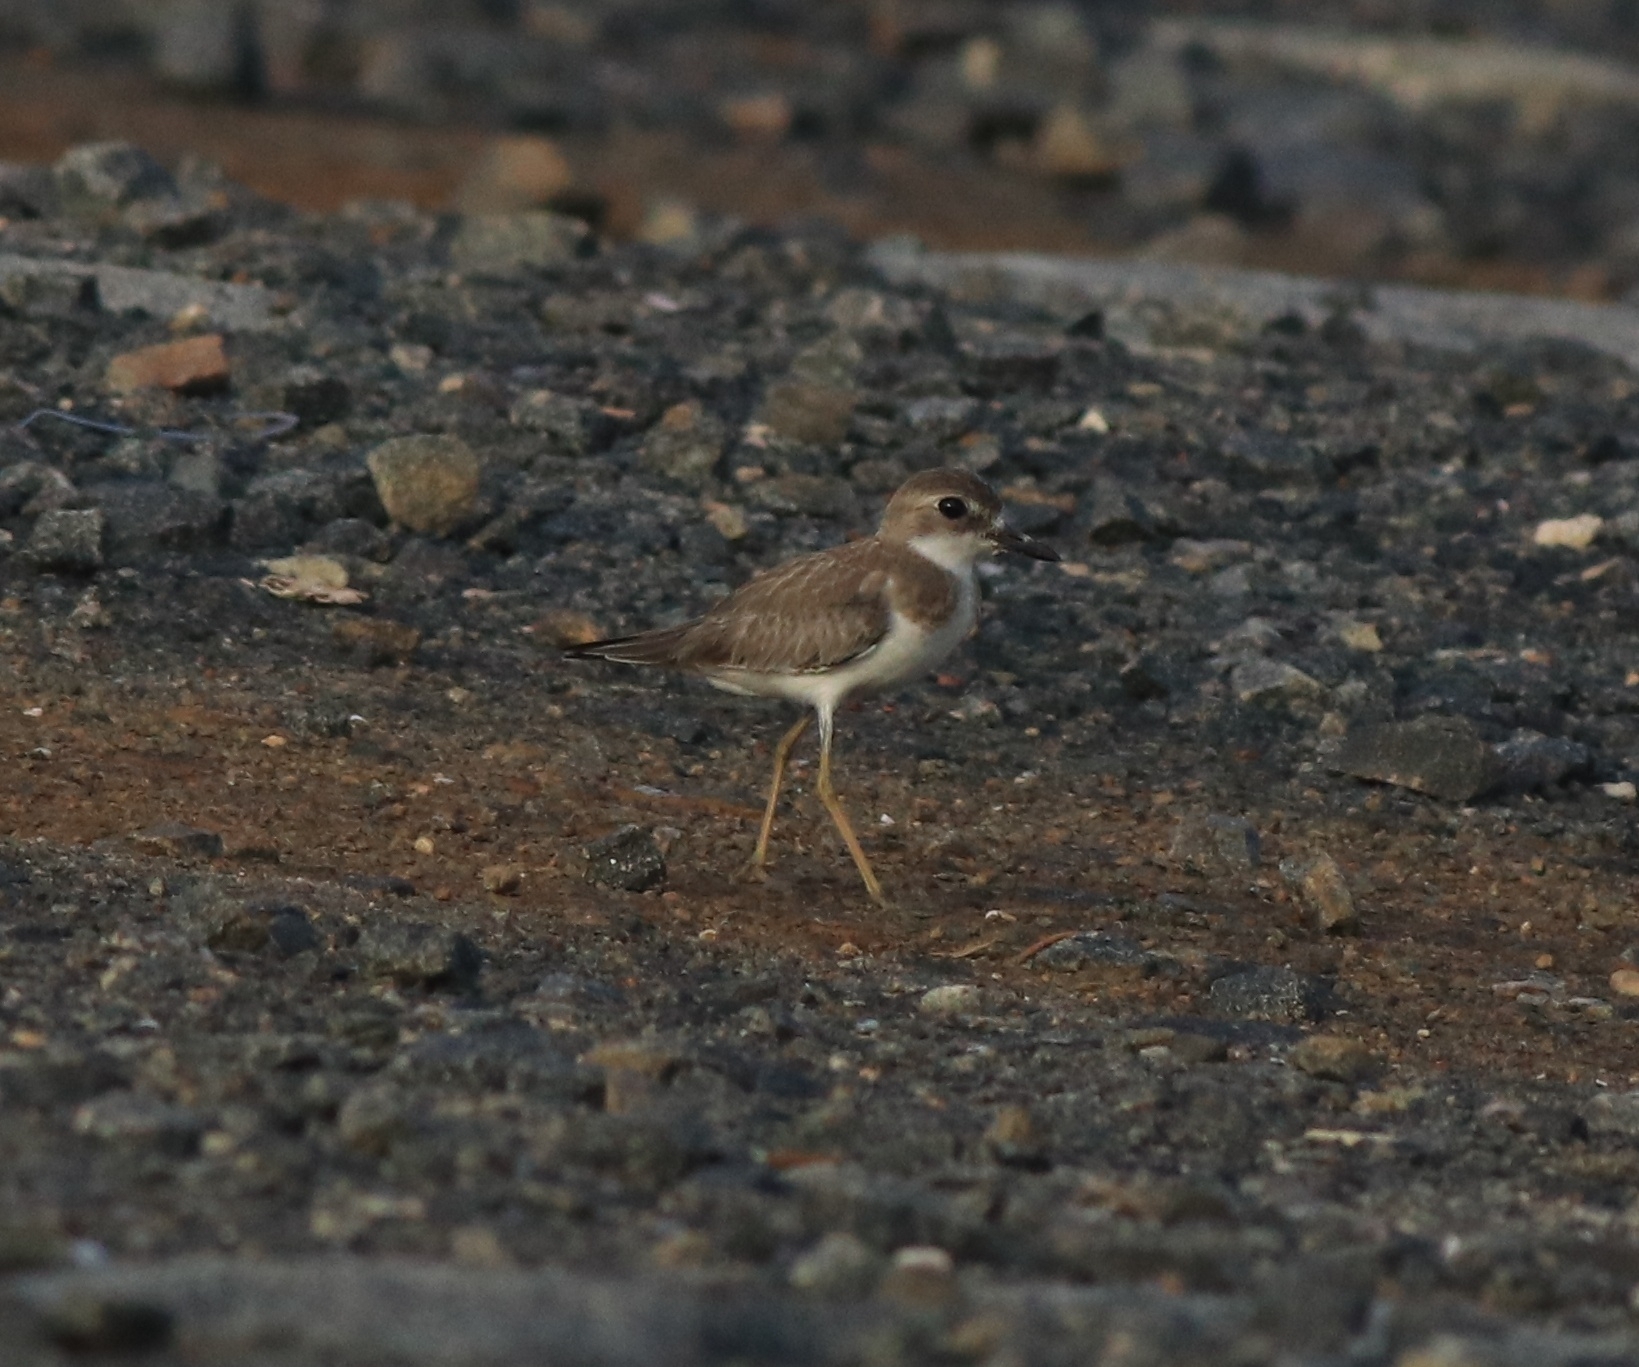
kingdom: Animalia
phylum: Chordata
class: Aves
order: Charadriiformes
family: Charadriidae
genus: Charadrius
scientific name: Charadrius leschenaultii
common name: Greater sand plover
